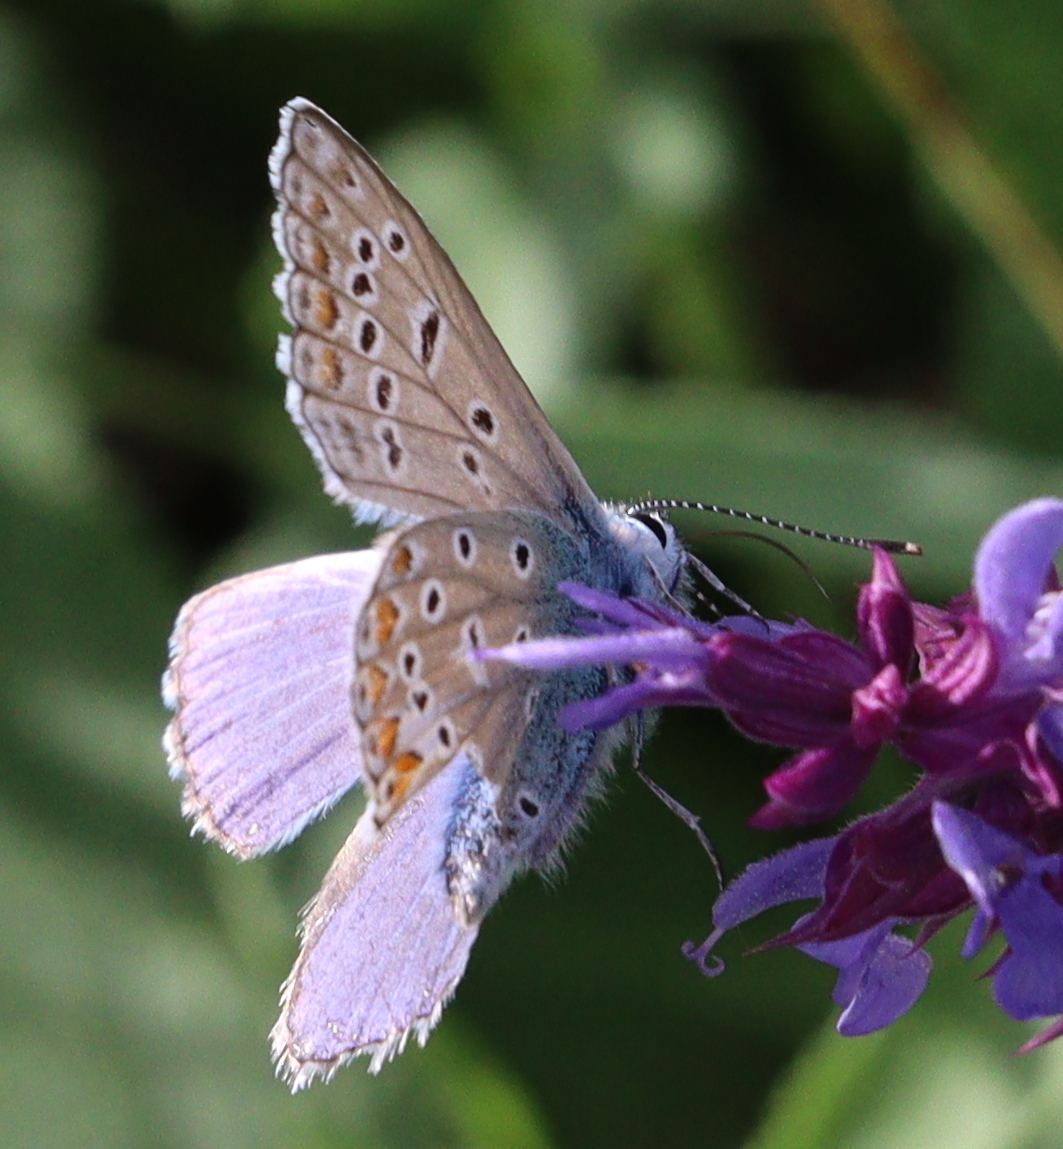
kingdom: Animalia
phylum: Arthropoda
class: Insecta
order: Lepidoptera
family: Lycaenidae
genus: Polyommatus
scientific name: Polyommatus icarus
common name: Common blue
